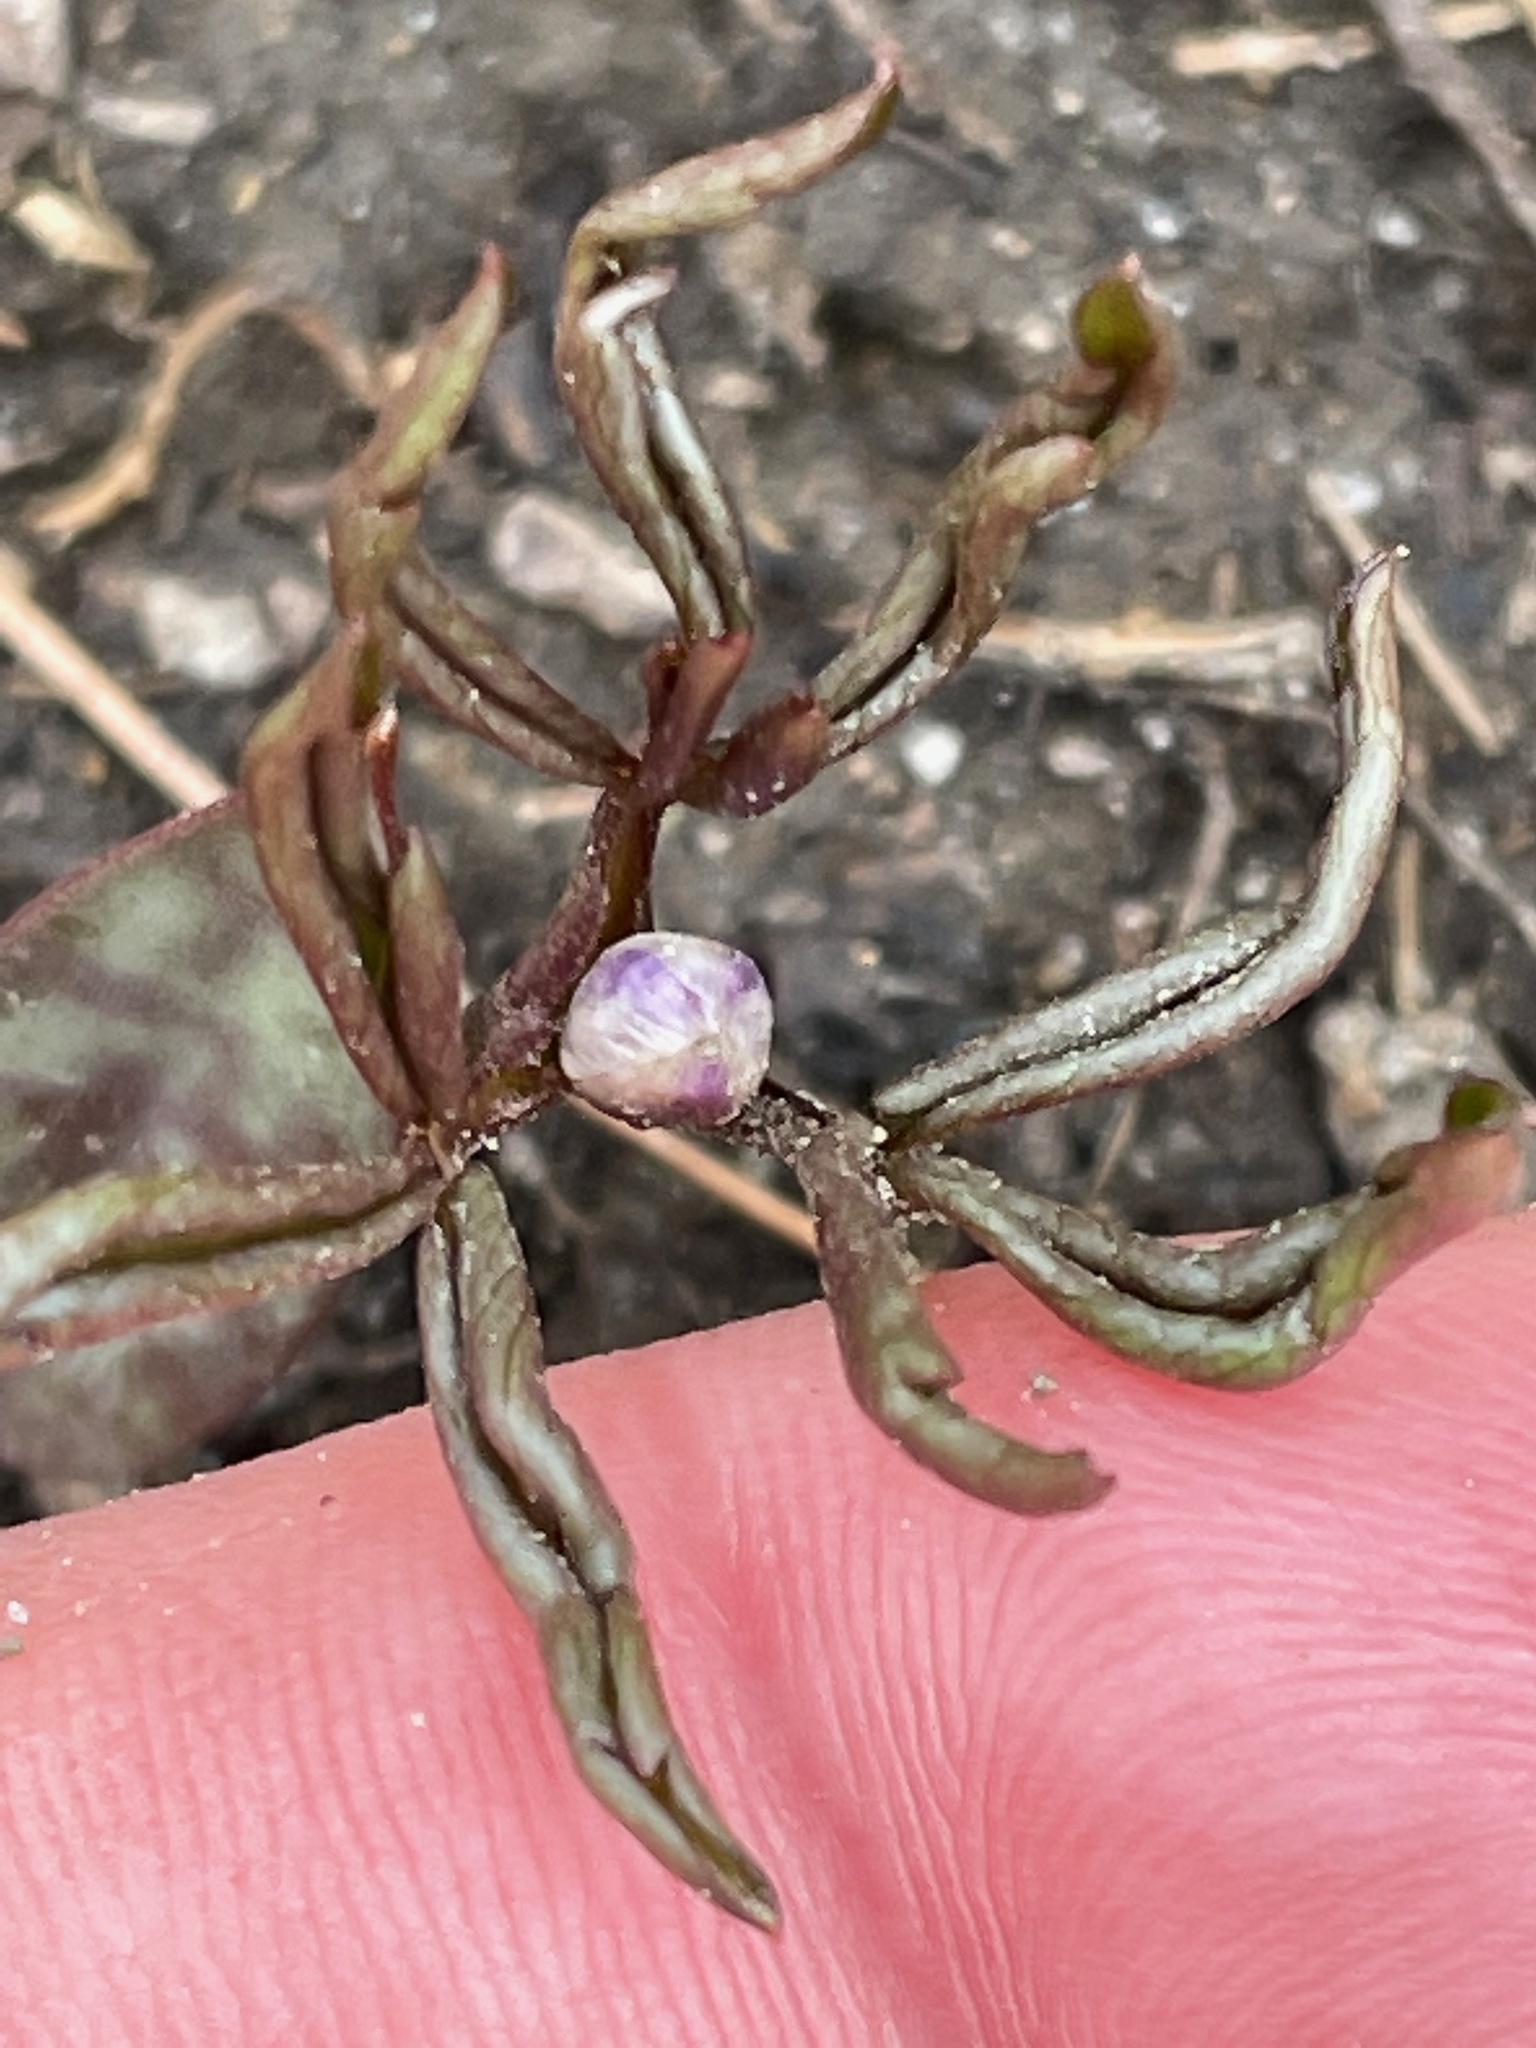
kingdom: Plantae
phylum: Tracheophyta
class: Magnoliopsida
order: Ranunculales
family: Ranunculaceae
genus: Anemone
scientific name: Anemone quinquefolia
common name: Wood anemone
